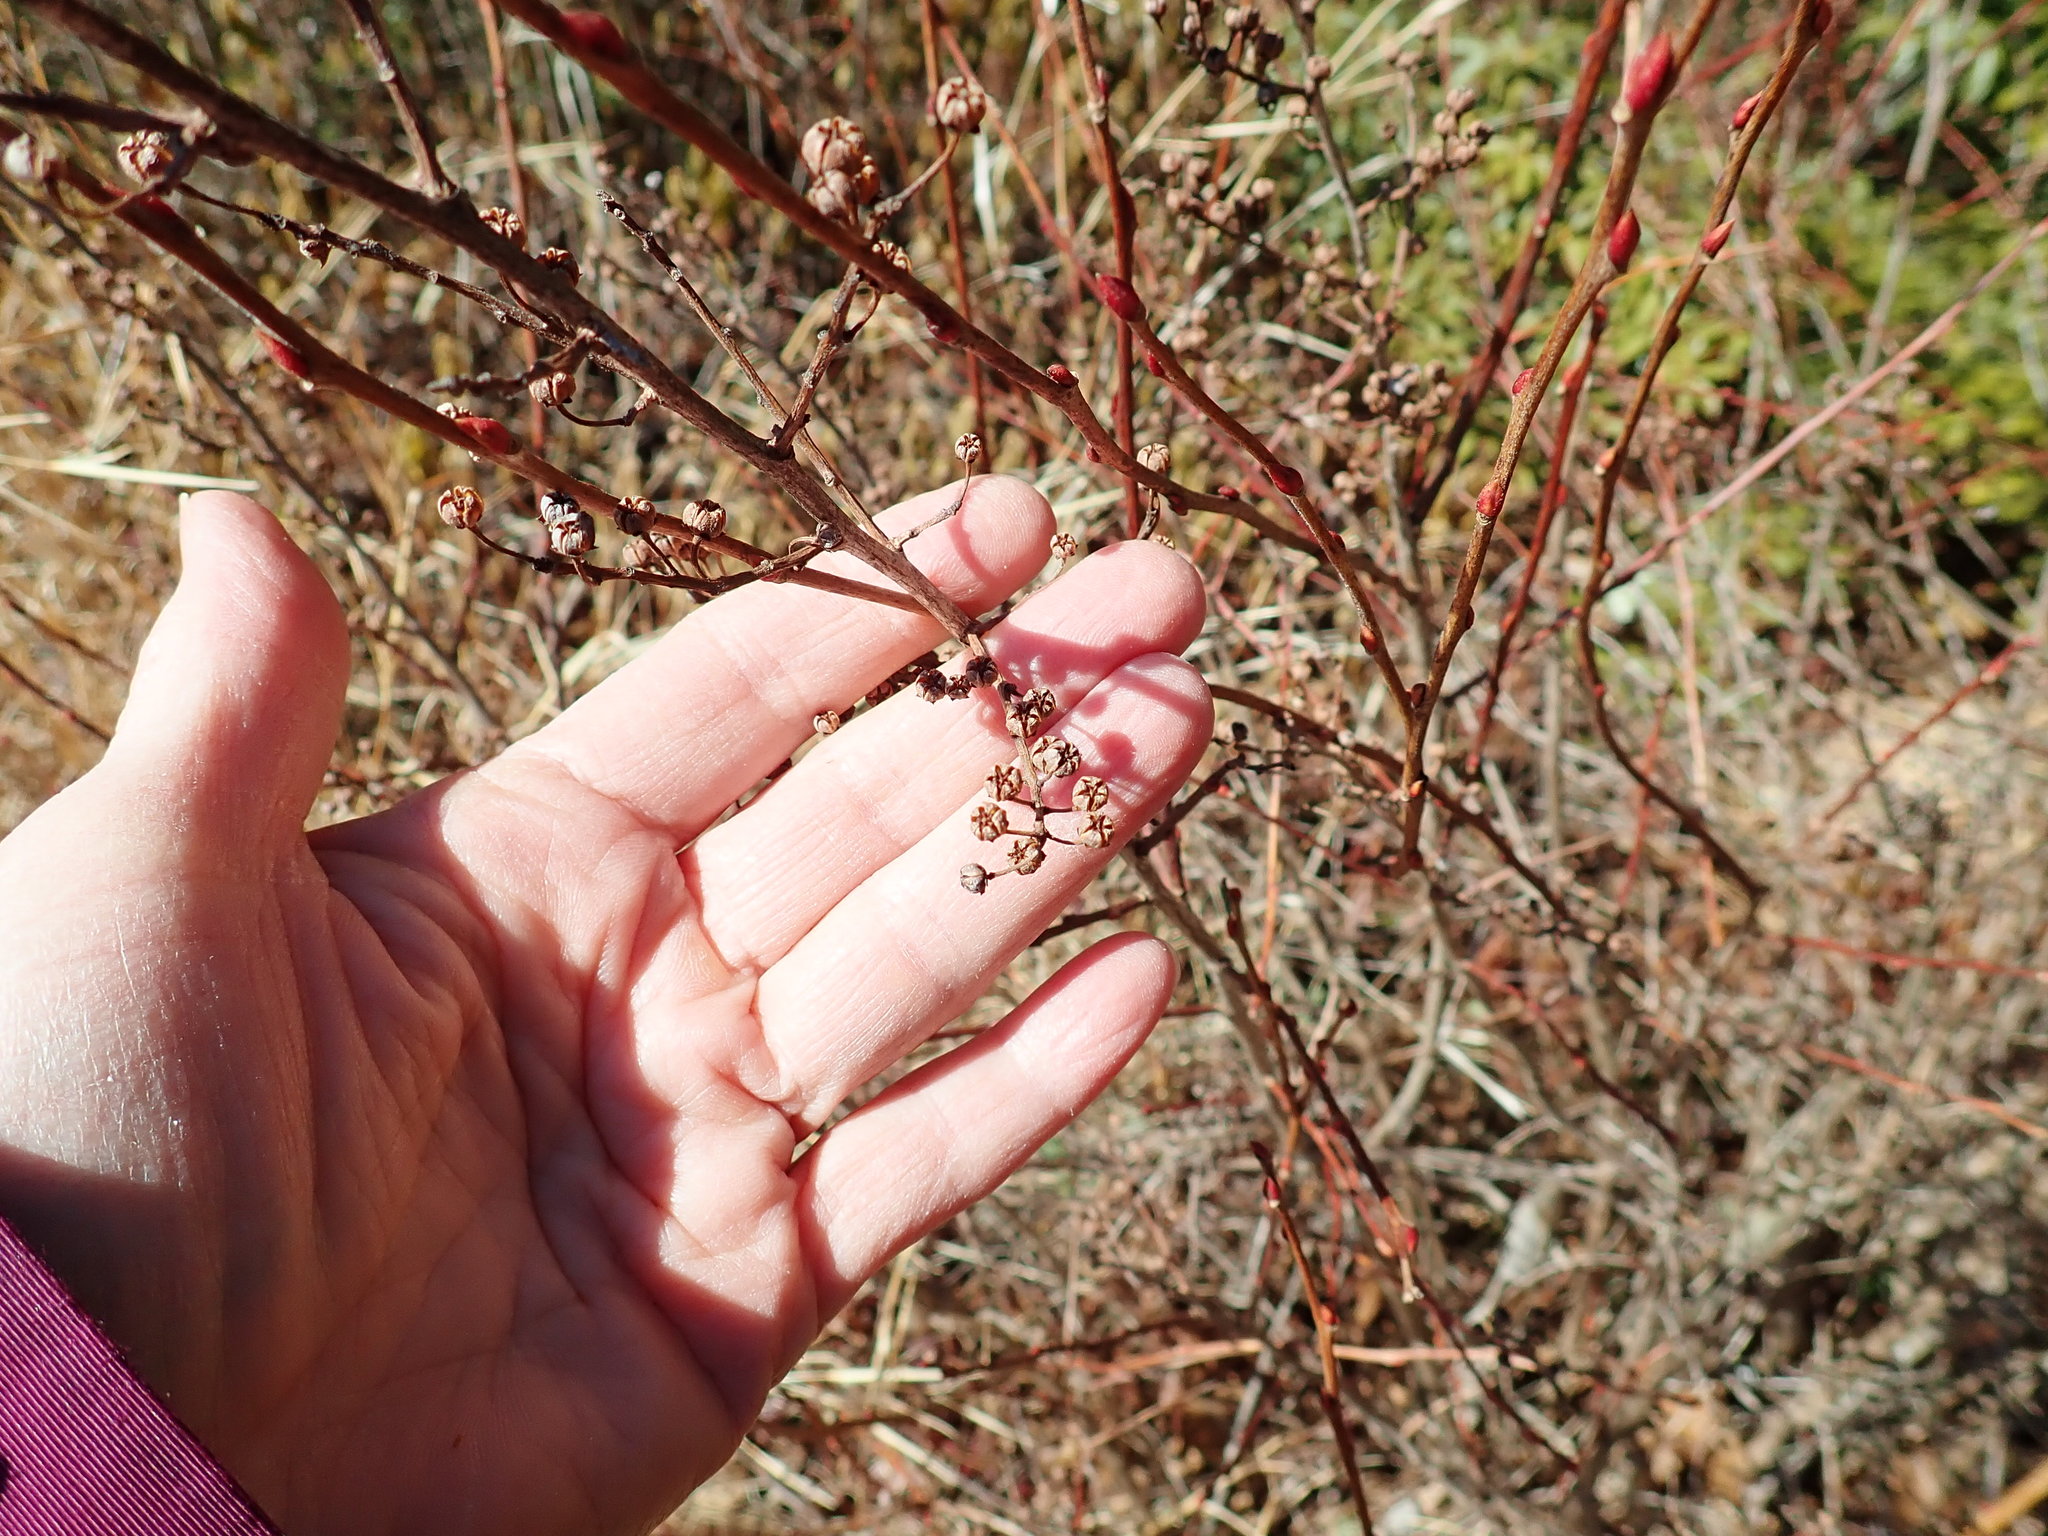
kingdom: Plantae
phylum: Tracheophyta
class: Magnoliopsida
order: Ericales
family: Ericaceae
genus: Lyonia
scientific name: Lyonia ligustrina
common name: Maleberry
